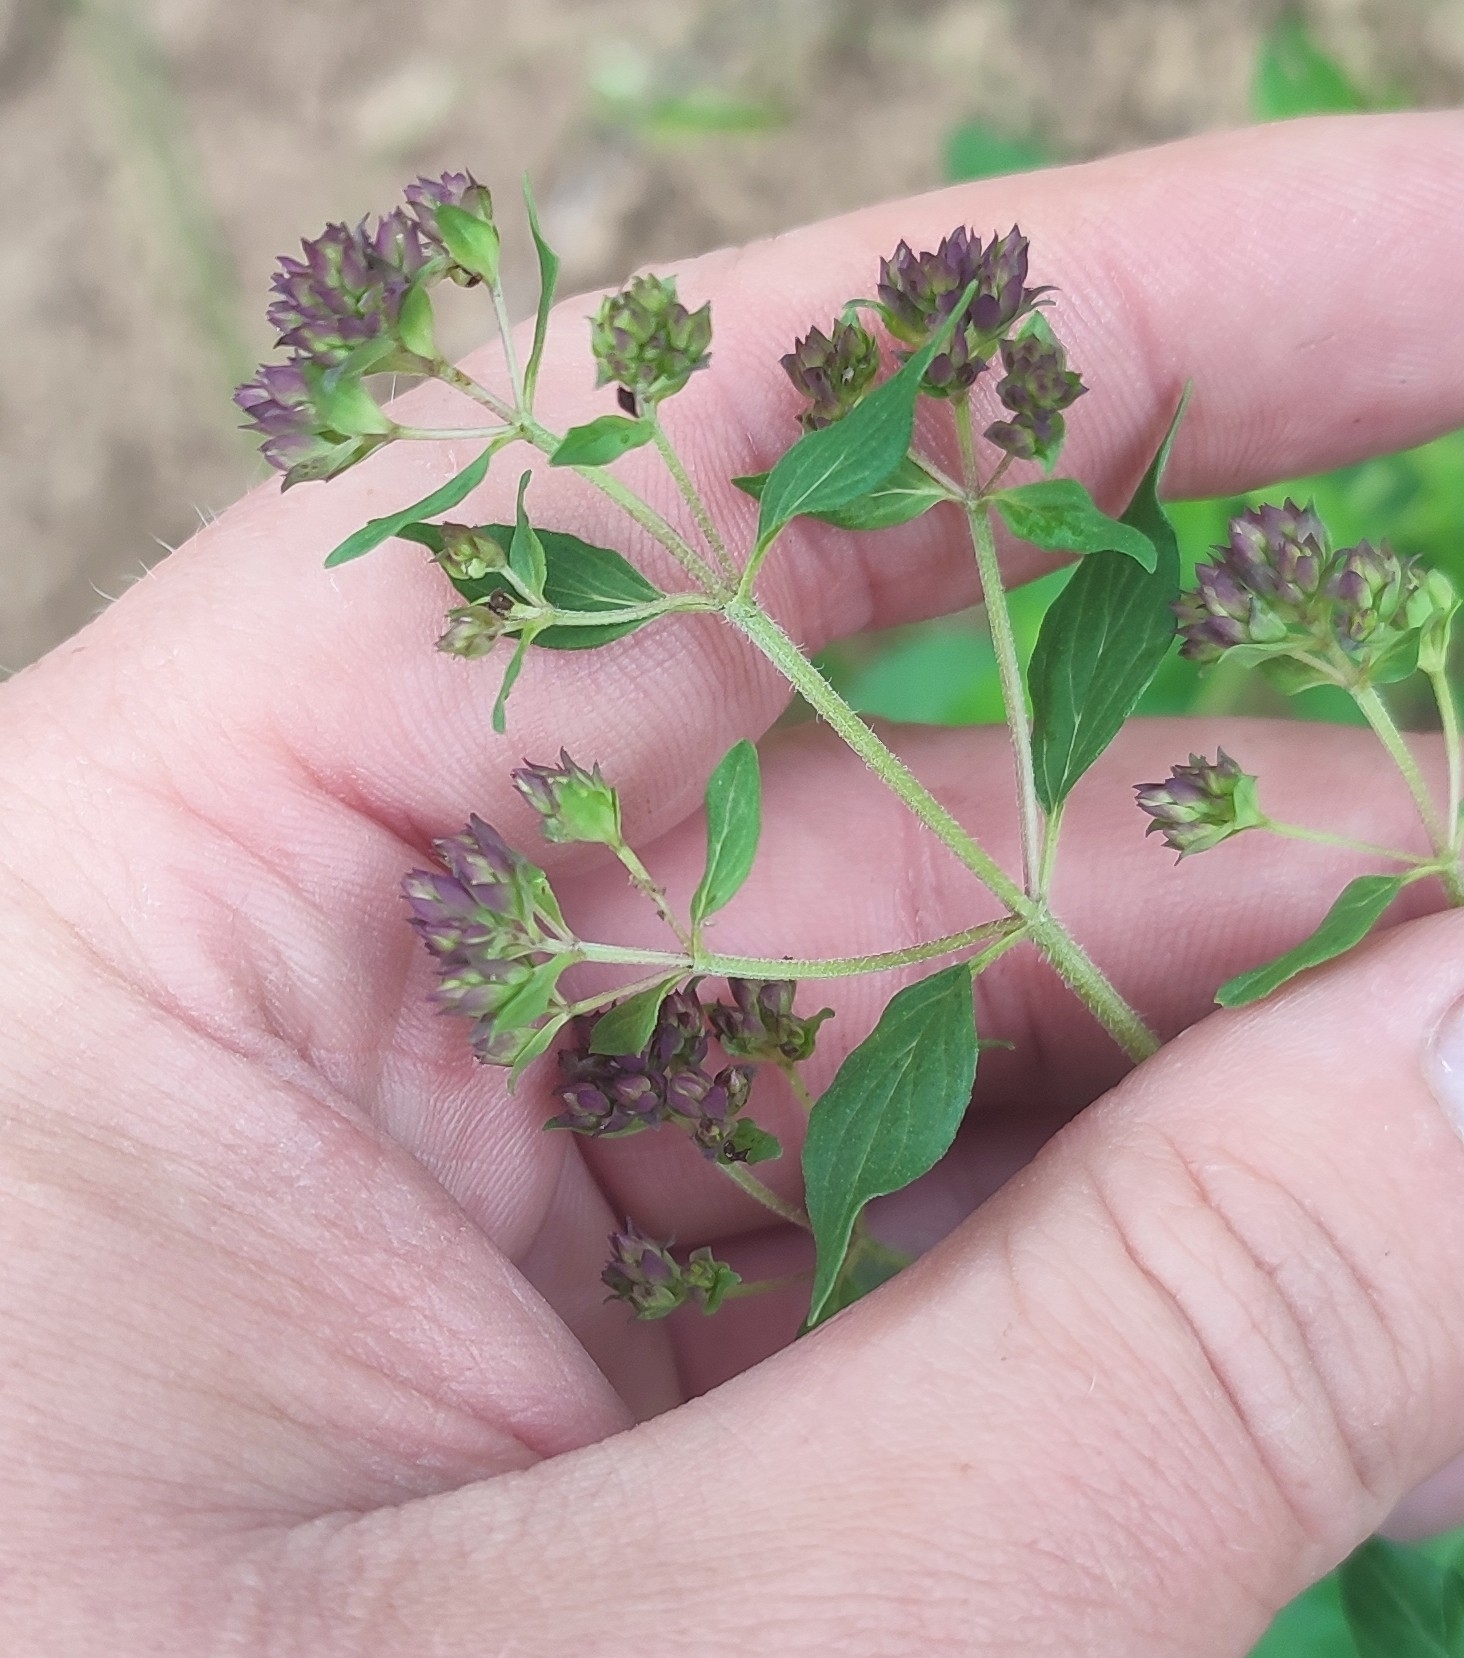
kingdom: Plantae
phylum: Tracheophyta
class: Magnoliopsida
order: Lamiales
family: Lamiaceae
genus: Origanum
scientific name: Origanum vulgare
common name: Wild marjoram
